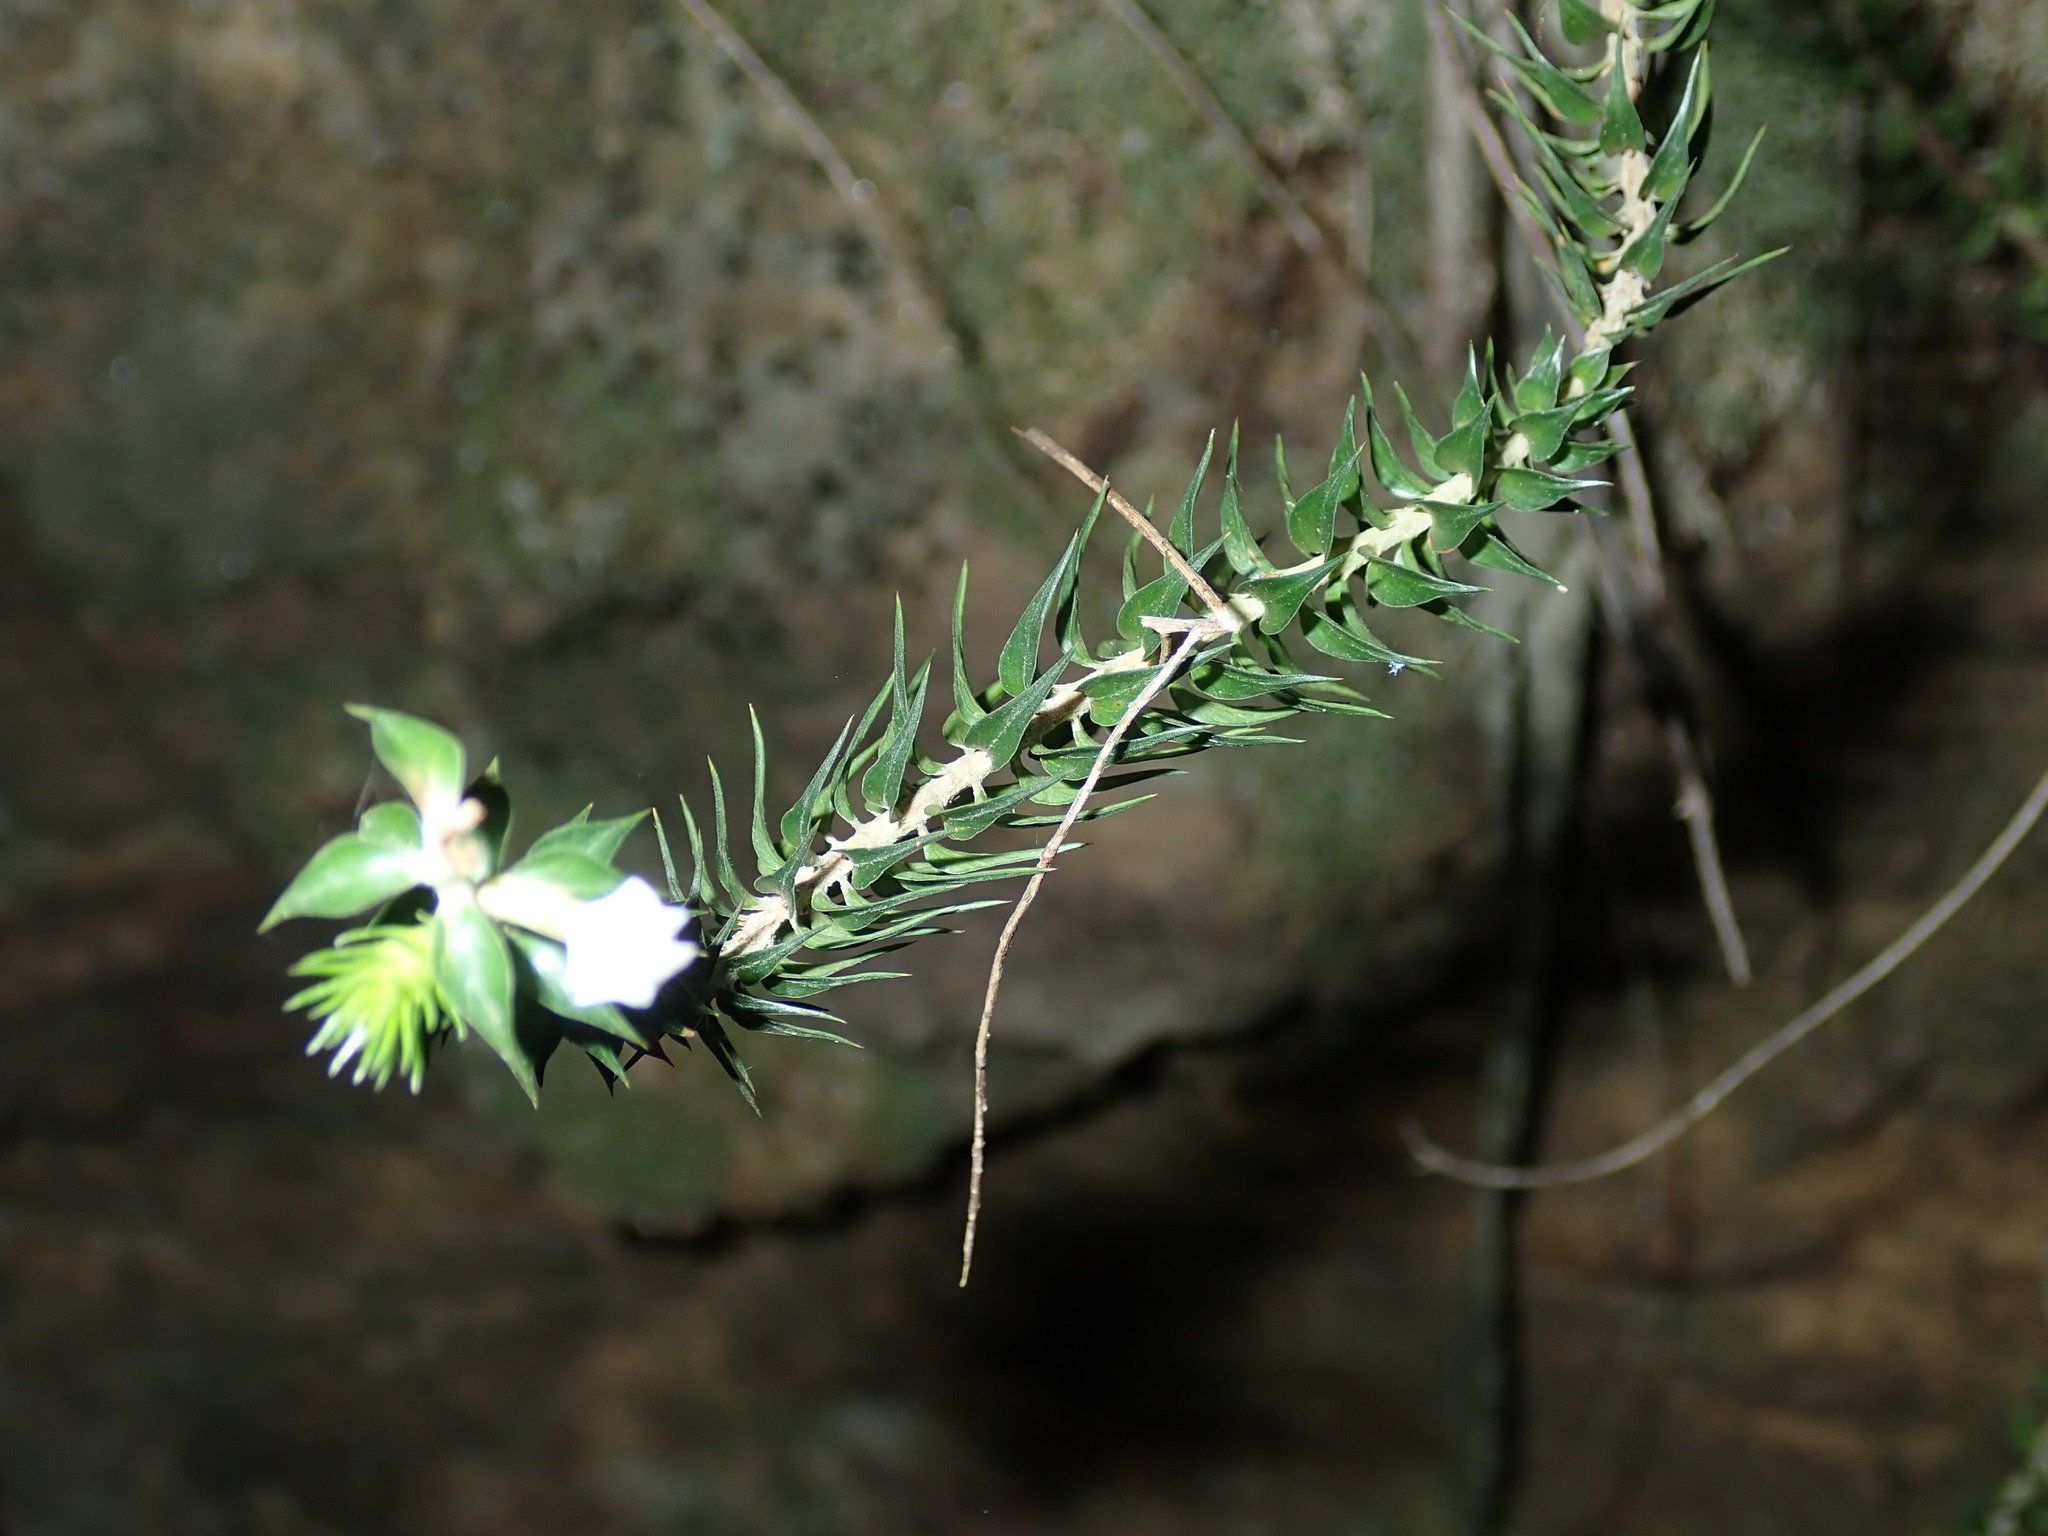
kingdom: Plantae
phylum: Tracheophyta
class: Magnoliopsida
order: Ericales
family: Ericaceae
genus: Woollsia
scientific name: Woollsia pungens
